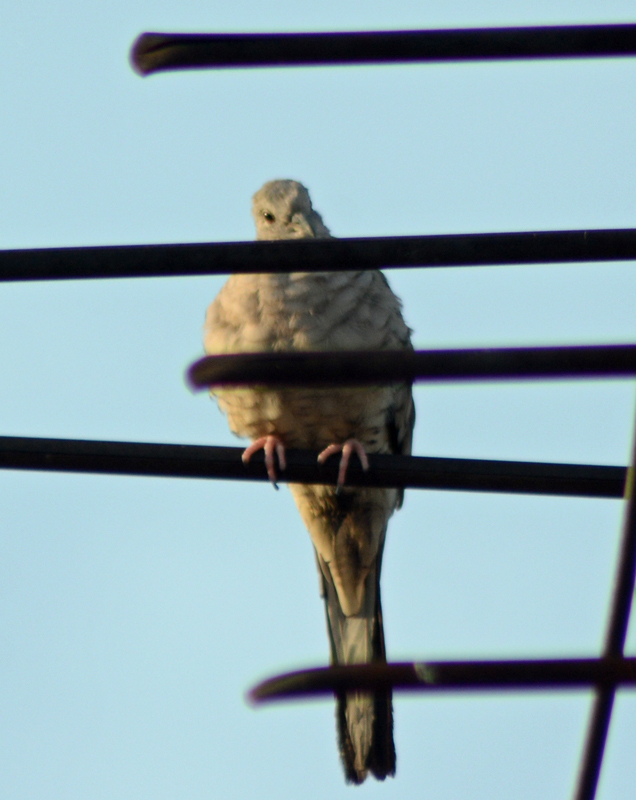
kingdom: Animalia
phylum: Chordata
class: Aves
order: Columbiformes
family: Columbidae
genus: Columbina
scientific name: Columbina inca
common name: Inca dove
